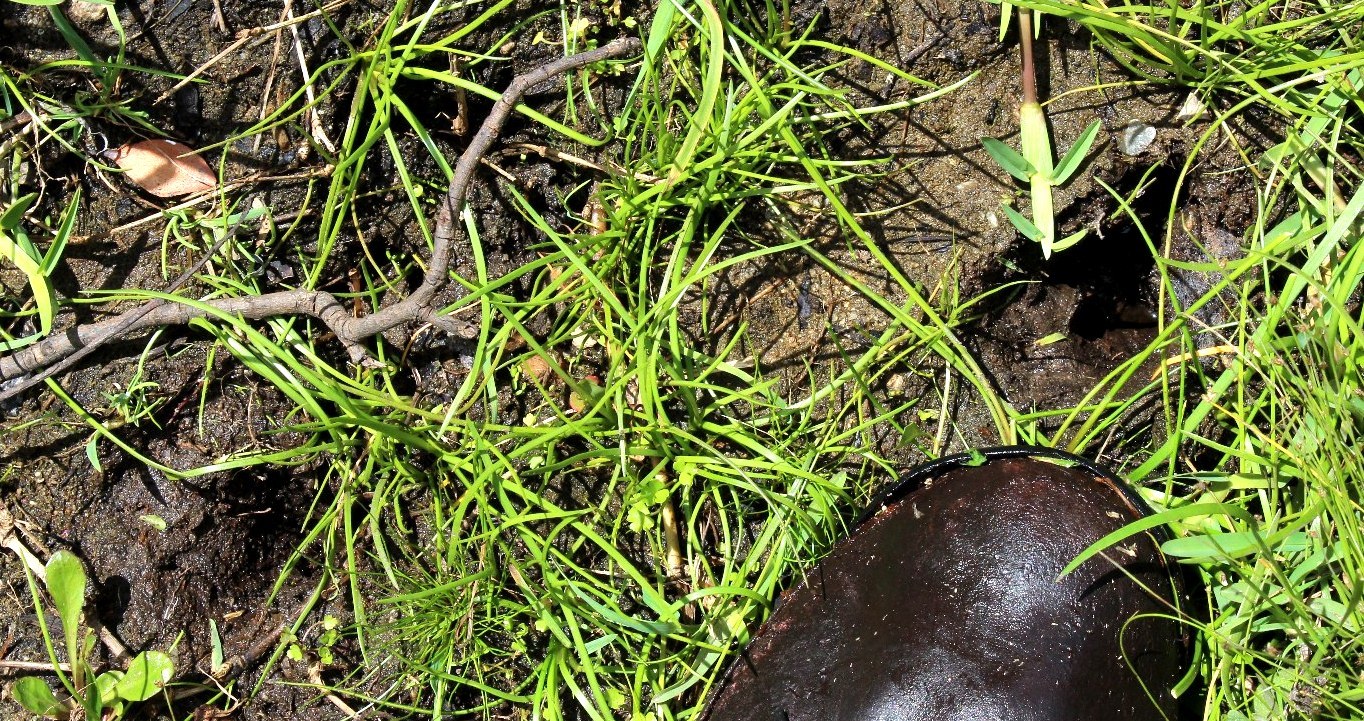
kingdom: Animalia
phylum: Chordata
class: Mammalia
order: Artiodactyla
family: Bovidae
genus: Tragelaphus
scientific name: Tragelaphus scriptus
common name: Bushbuck
